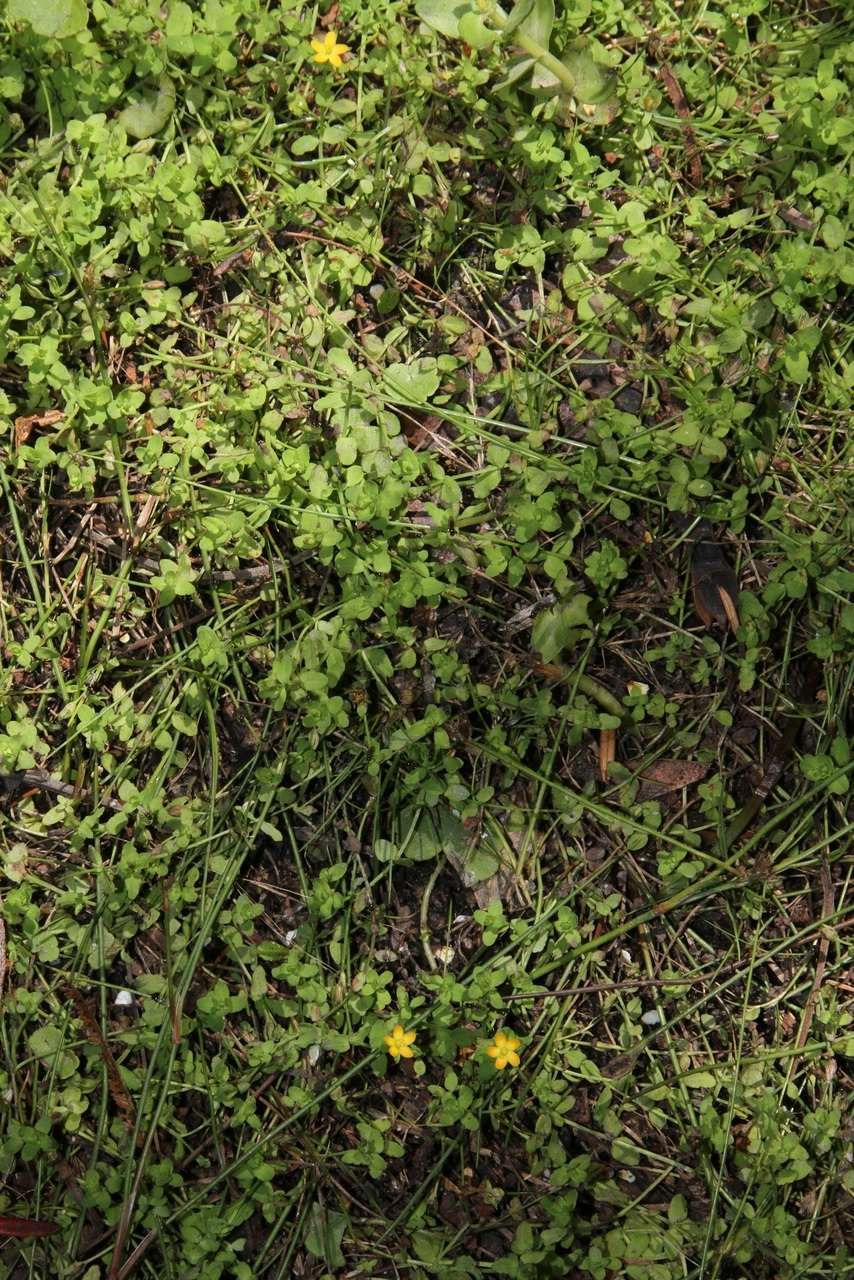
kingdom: Plantae
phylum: Tracheophyta
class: Magnoliopsida
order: Malpighiales
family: Hypericaceae
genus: Hypericum
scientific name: Hypericum japonicum
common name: Matted st. john's-wort
